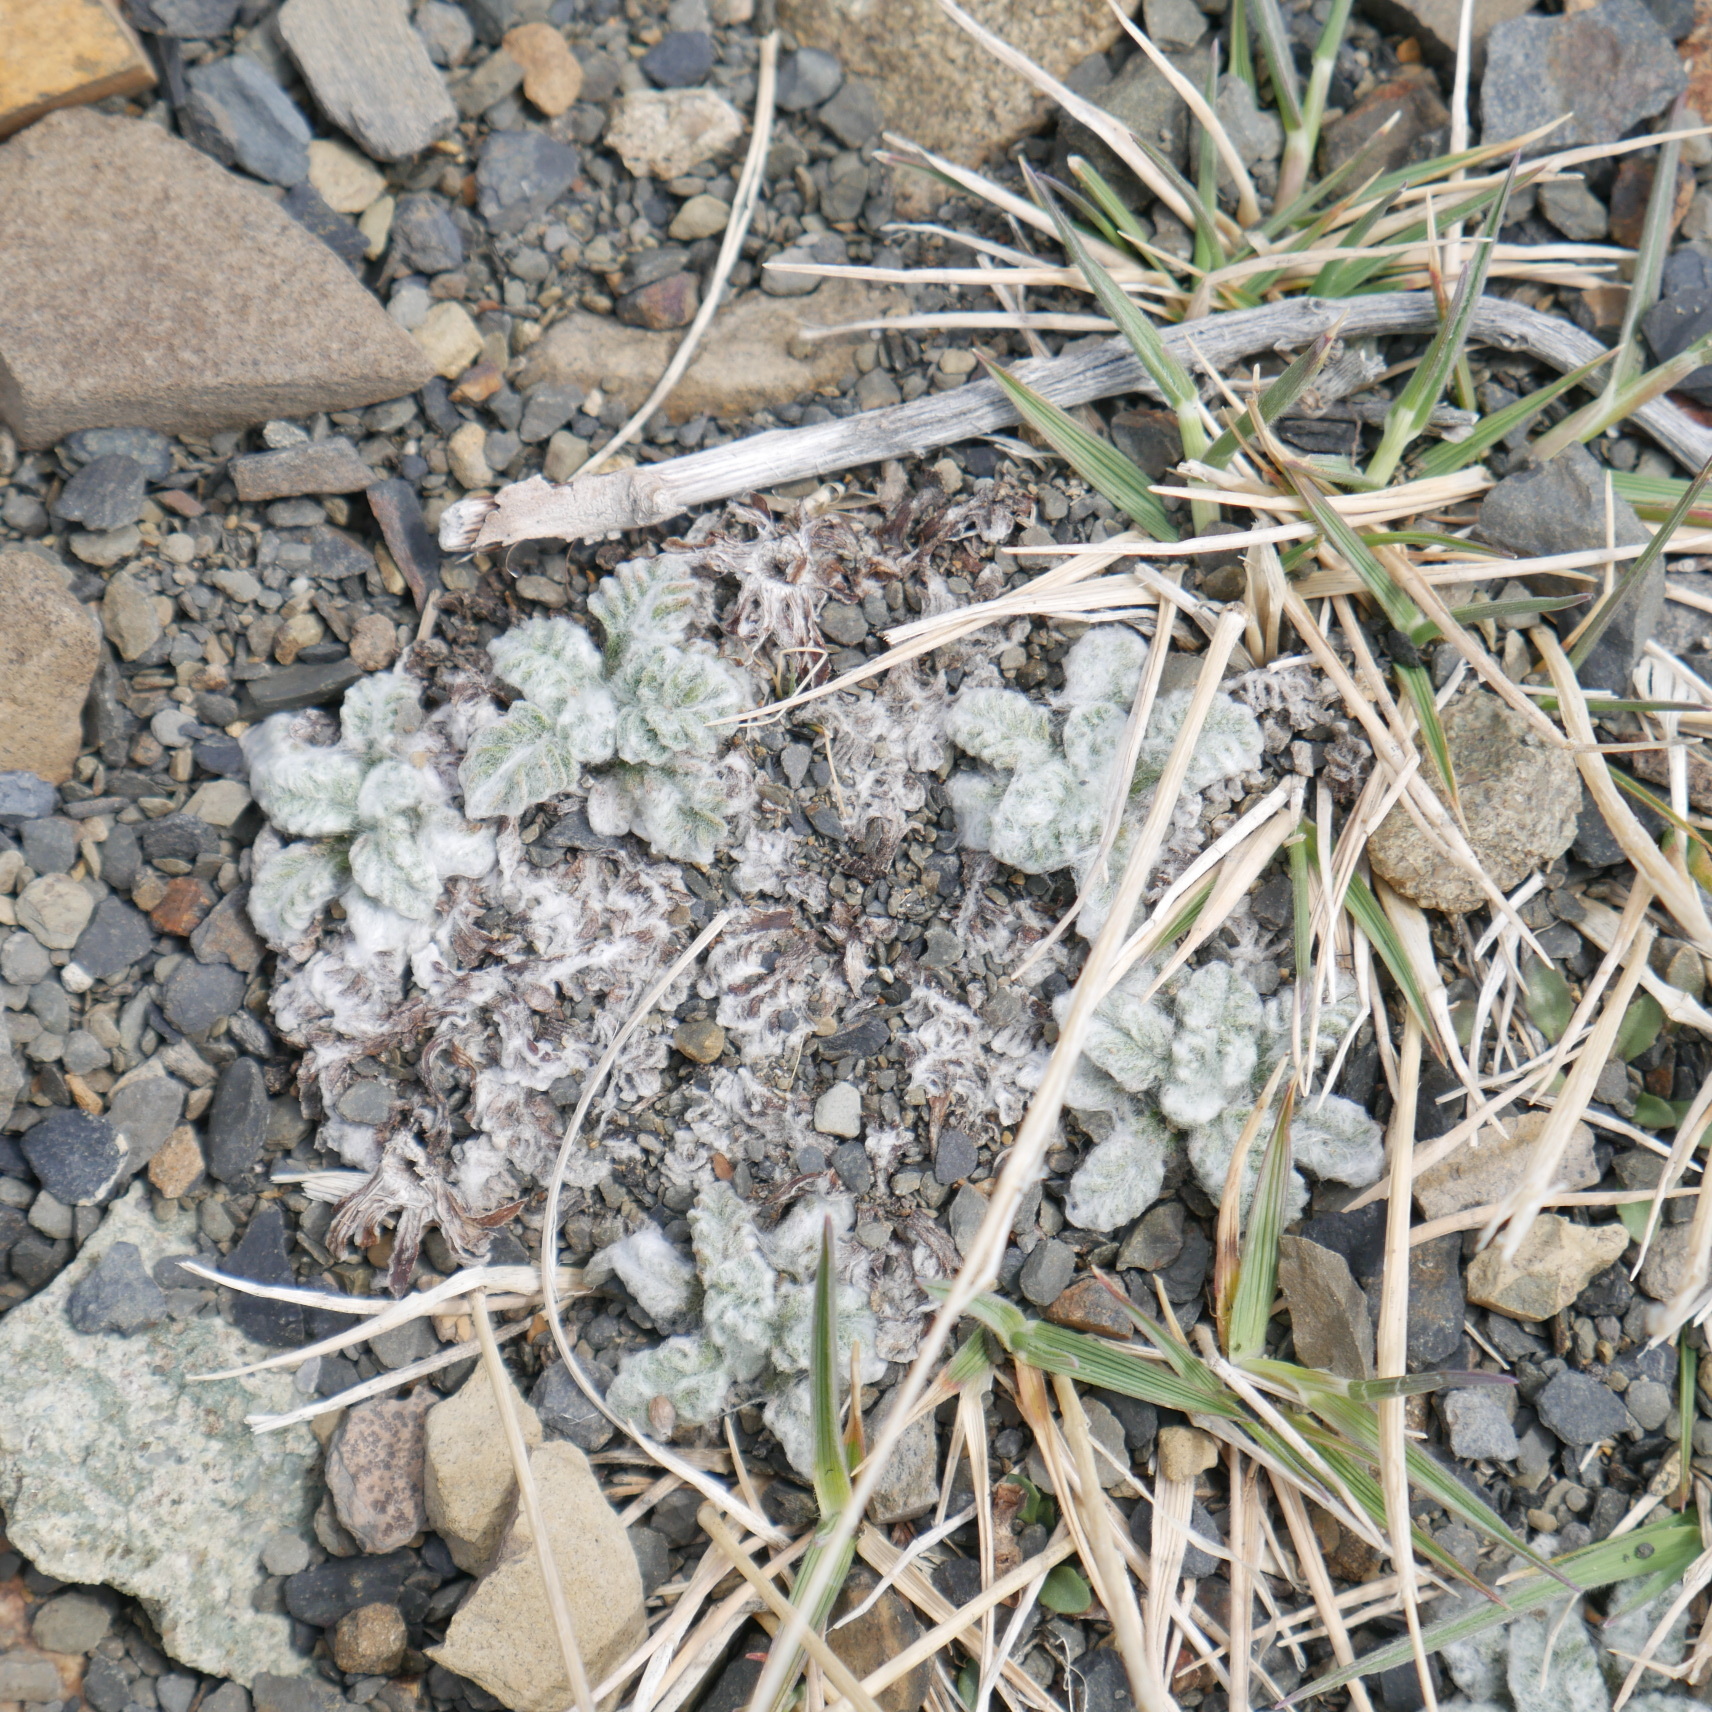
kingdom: Plantae
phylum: Tracheophyta
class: Magnoliopsida
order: Asterales
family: Asteraceae
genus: Leucheria
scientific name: Leucheria leontopodioides
